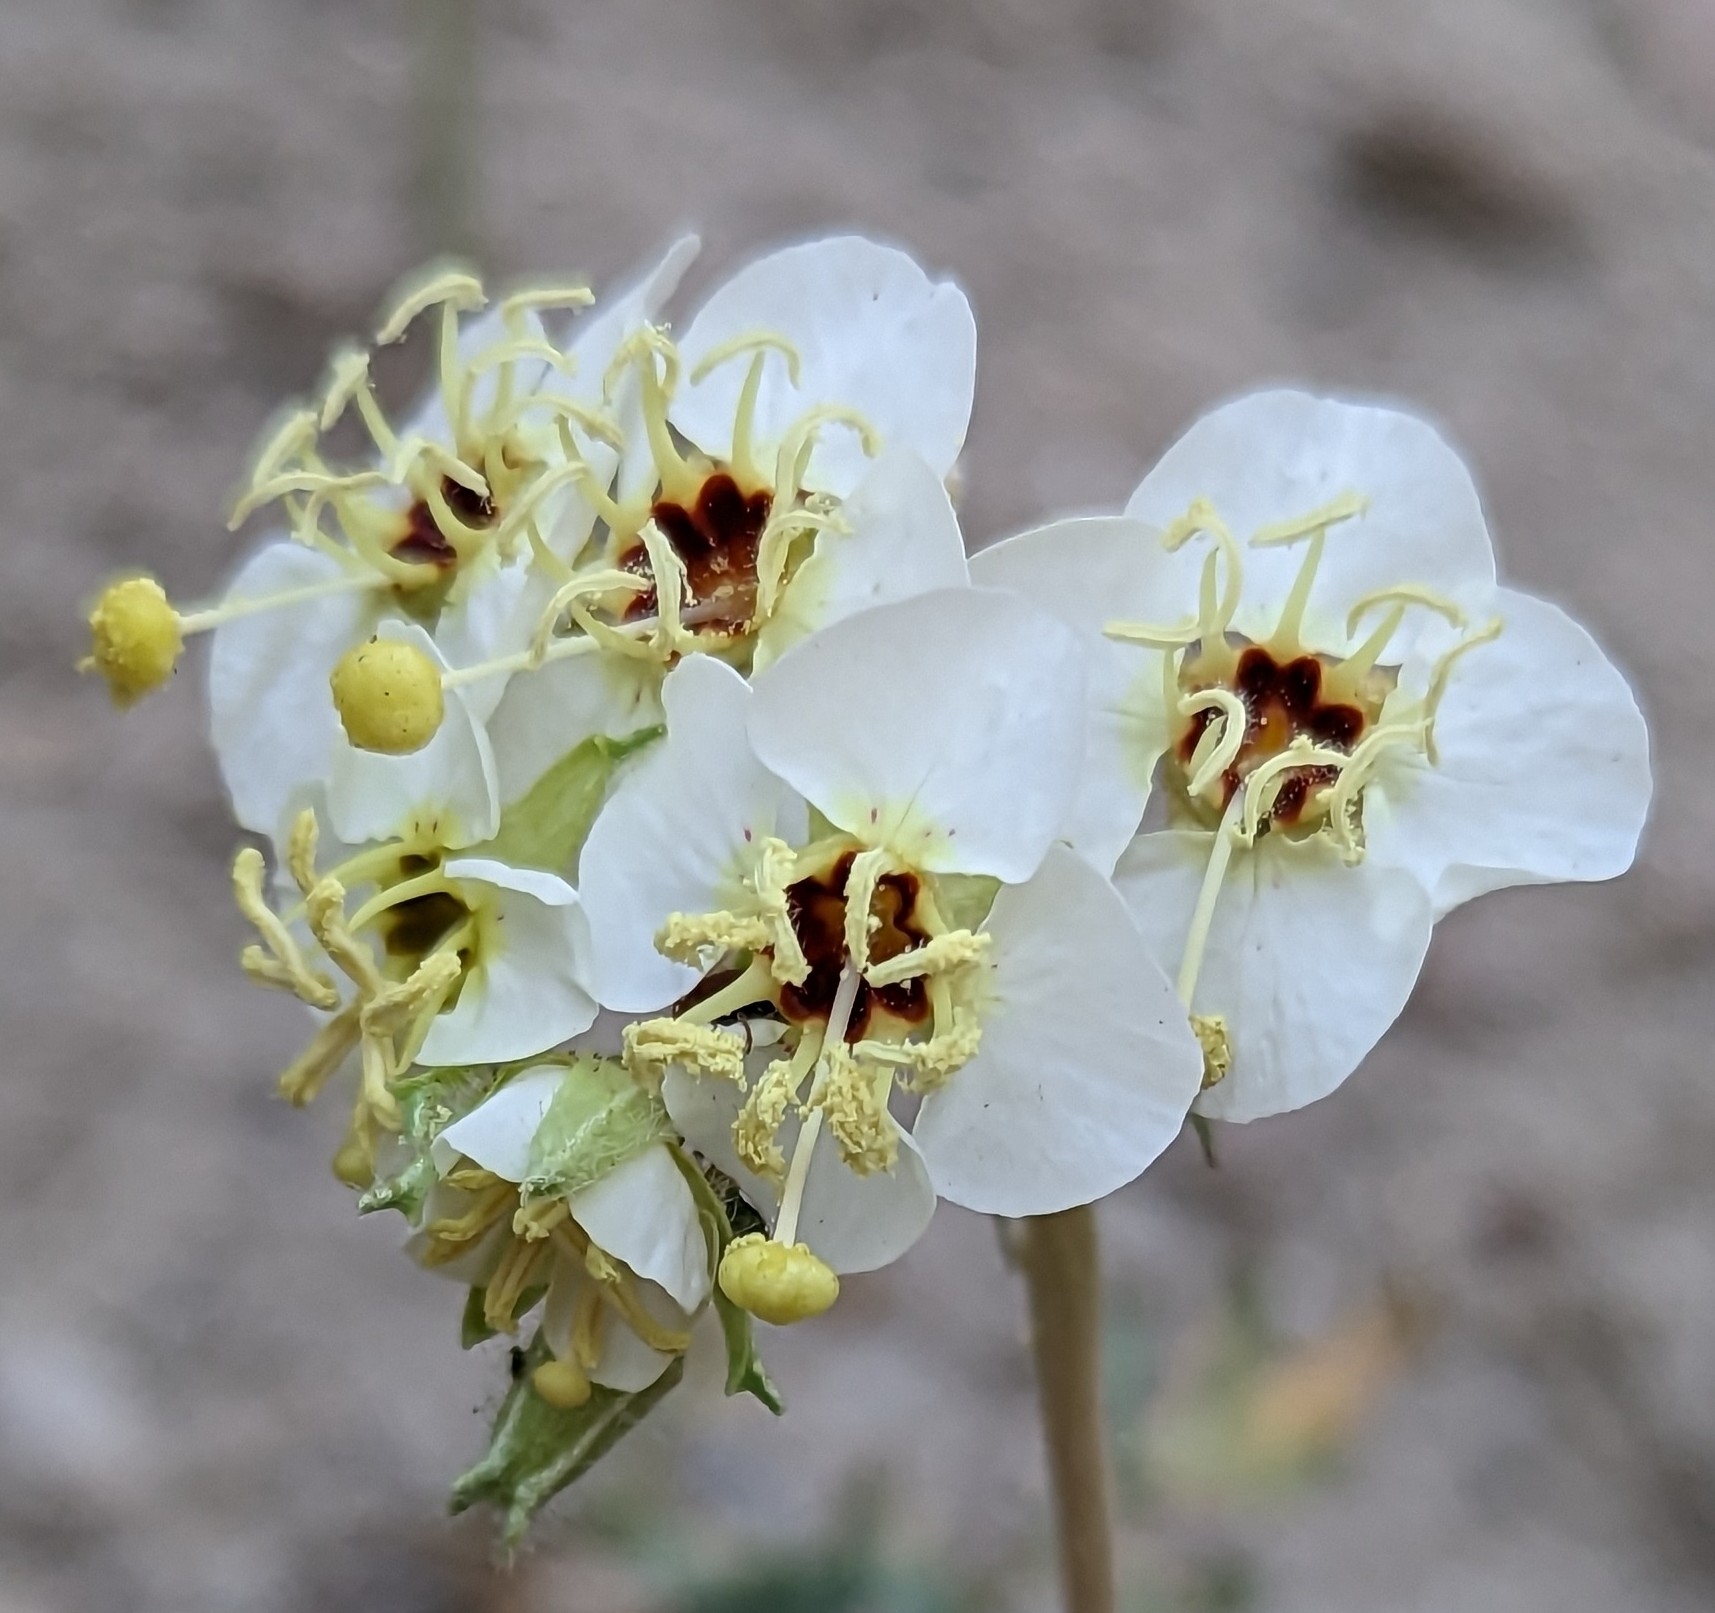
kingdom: Plantae
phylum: Tracheophyta
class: Magnoliopsida
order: Myrtales
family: Onagraceae
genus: Chylismia
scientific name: Chylismia claviformis
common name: Browneyes
